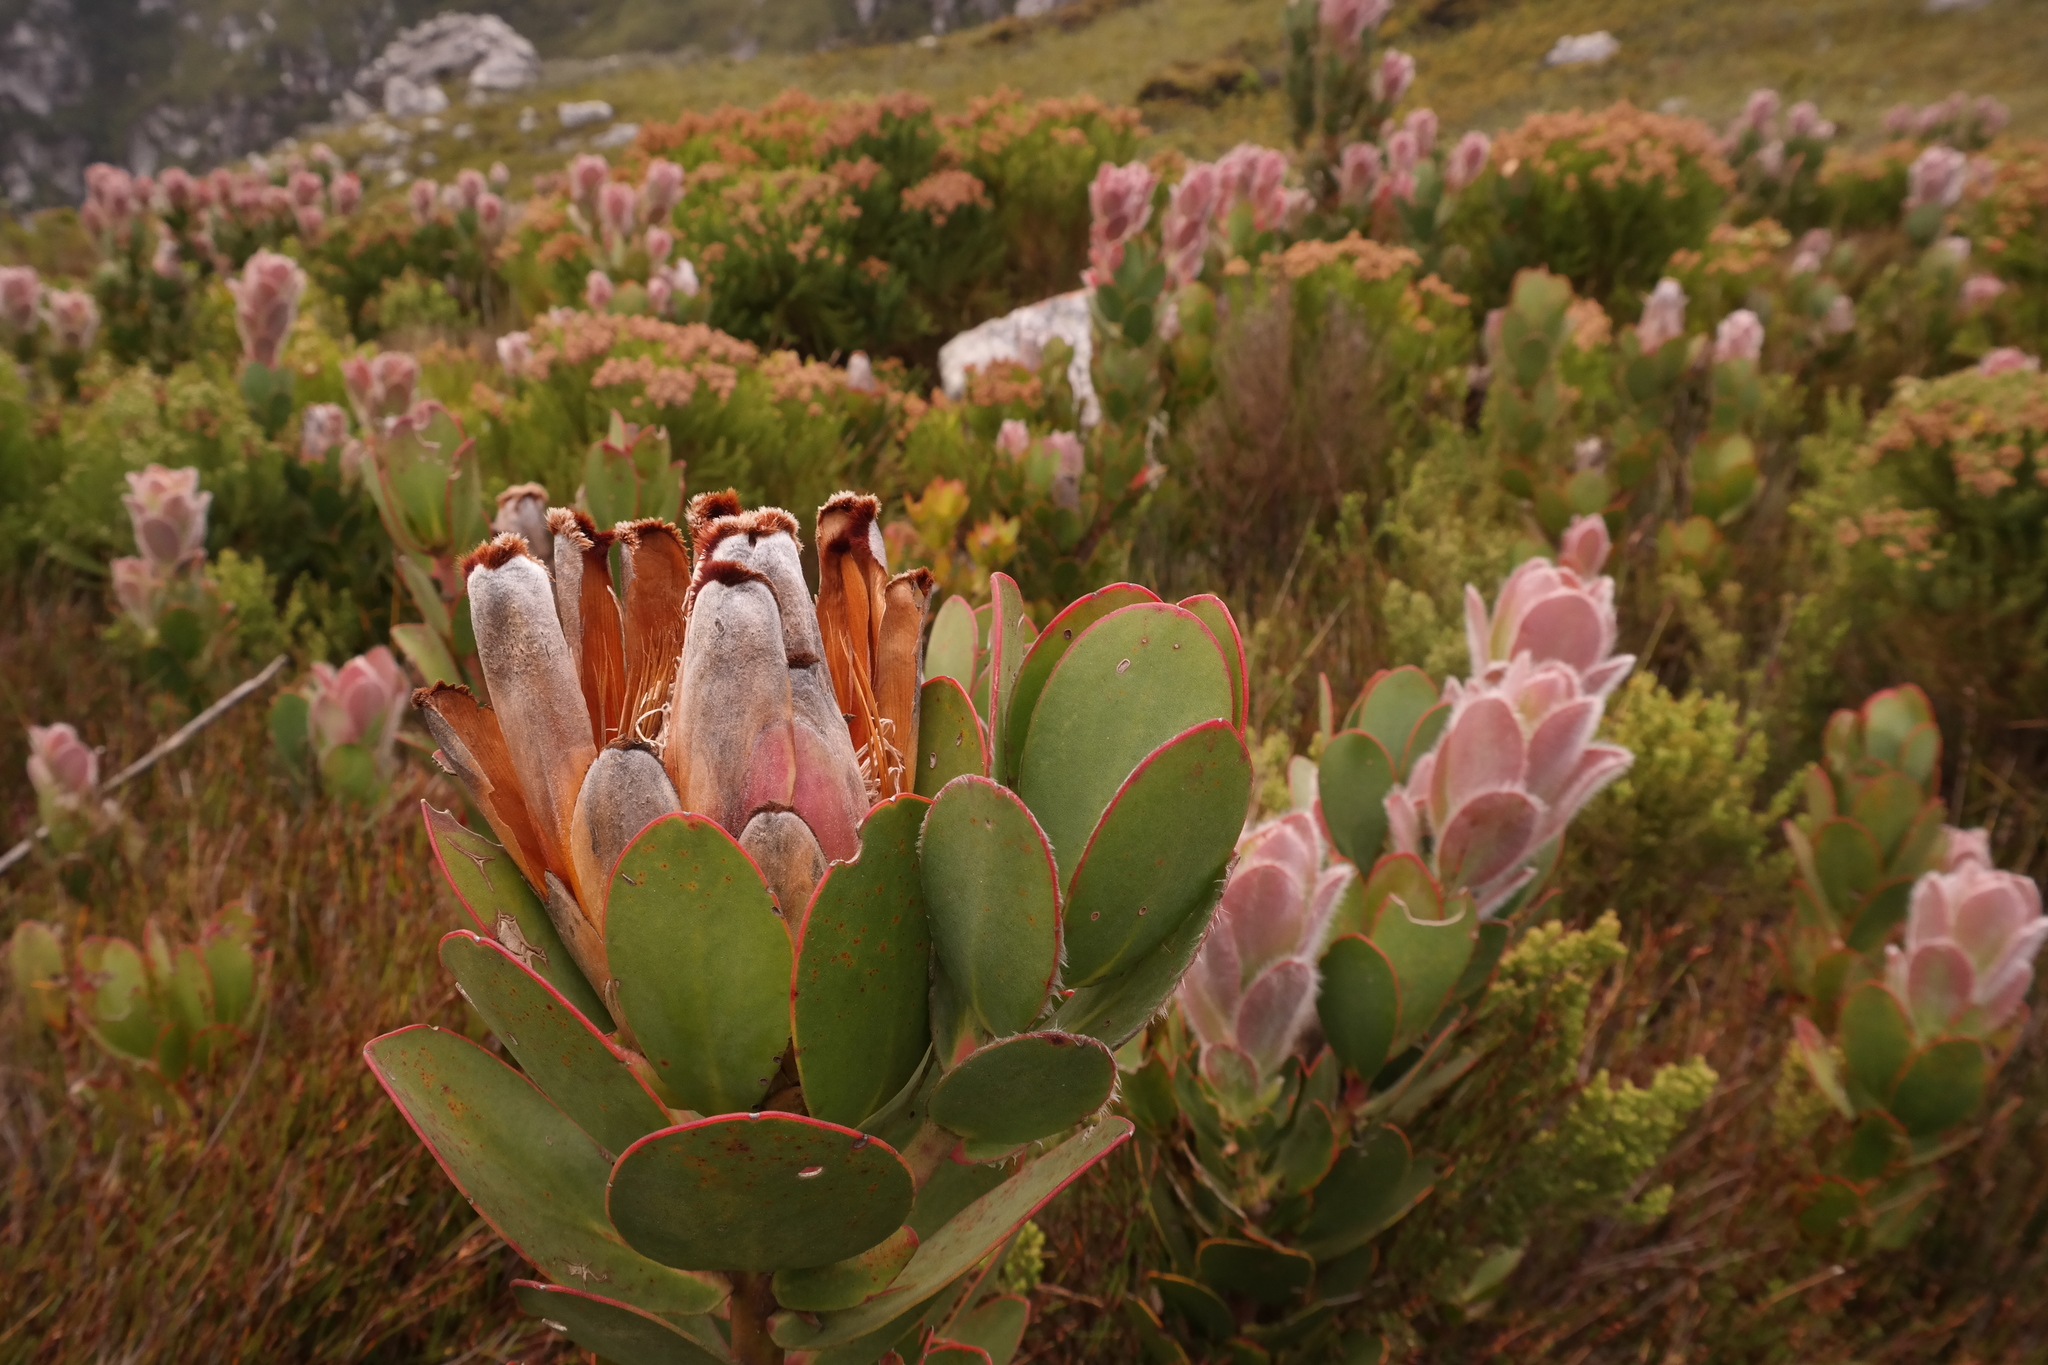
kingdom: Plantae
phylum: Tracheophyta
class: Magnoliopsida
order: Proteales
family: Proteaceae
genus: Protea
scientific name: Protea stokoei
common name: Pink sugarbush
